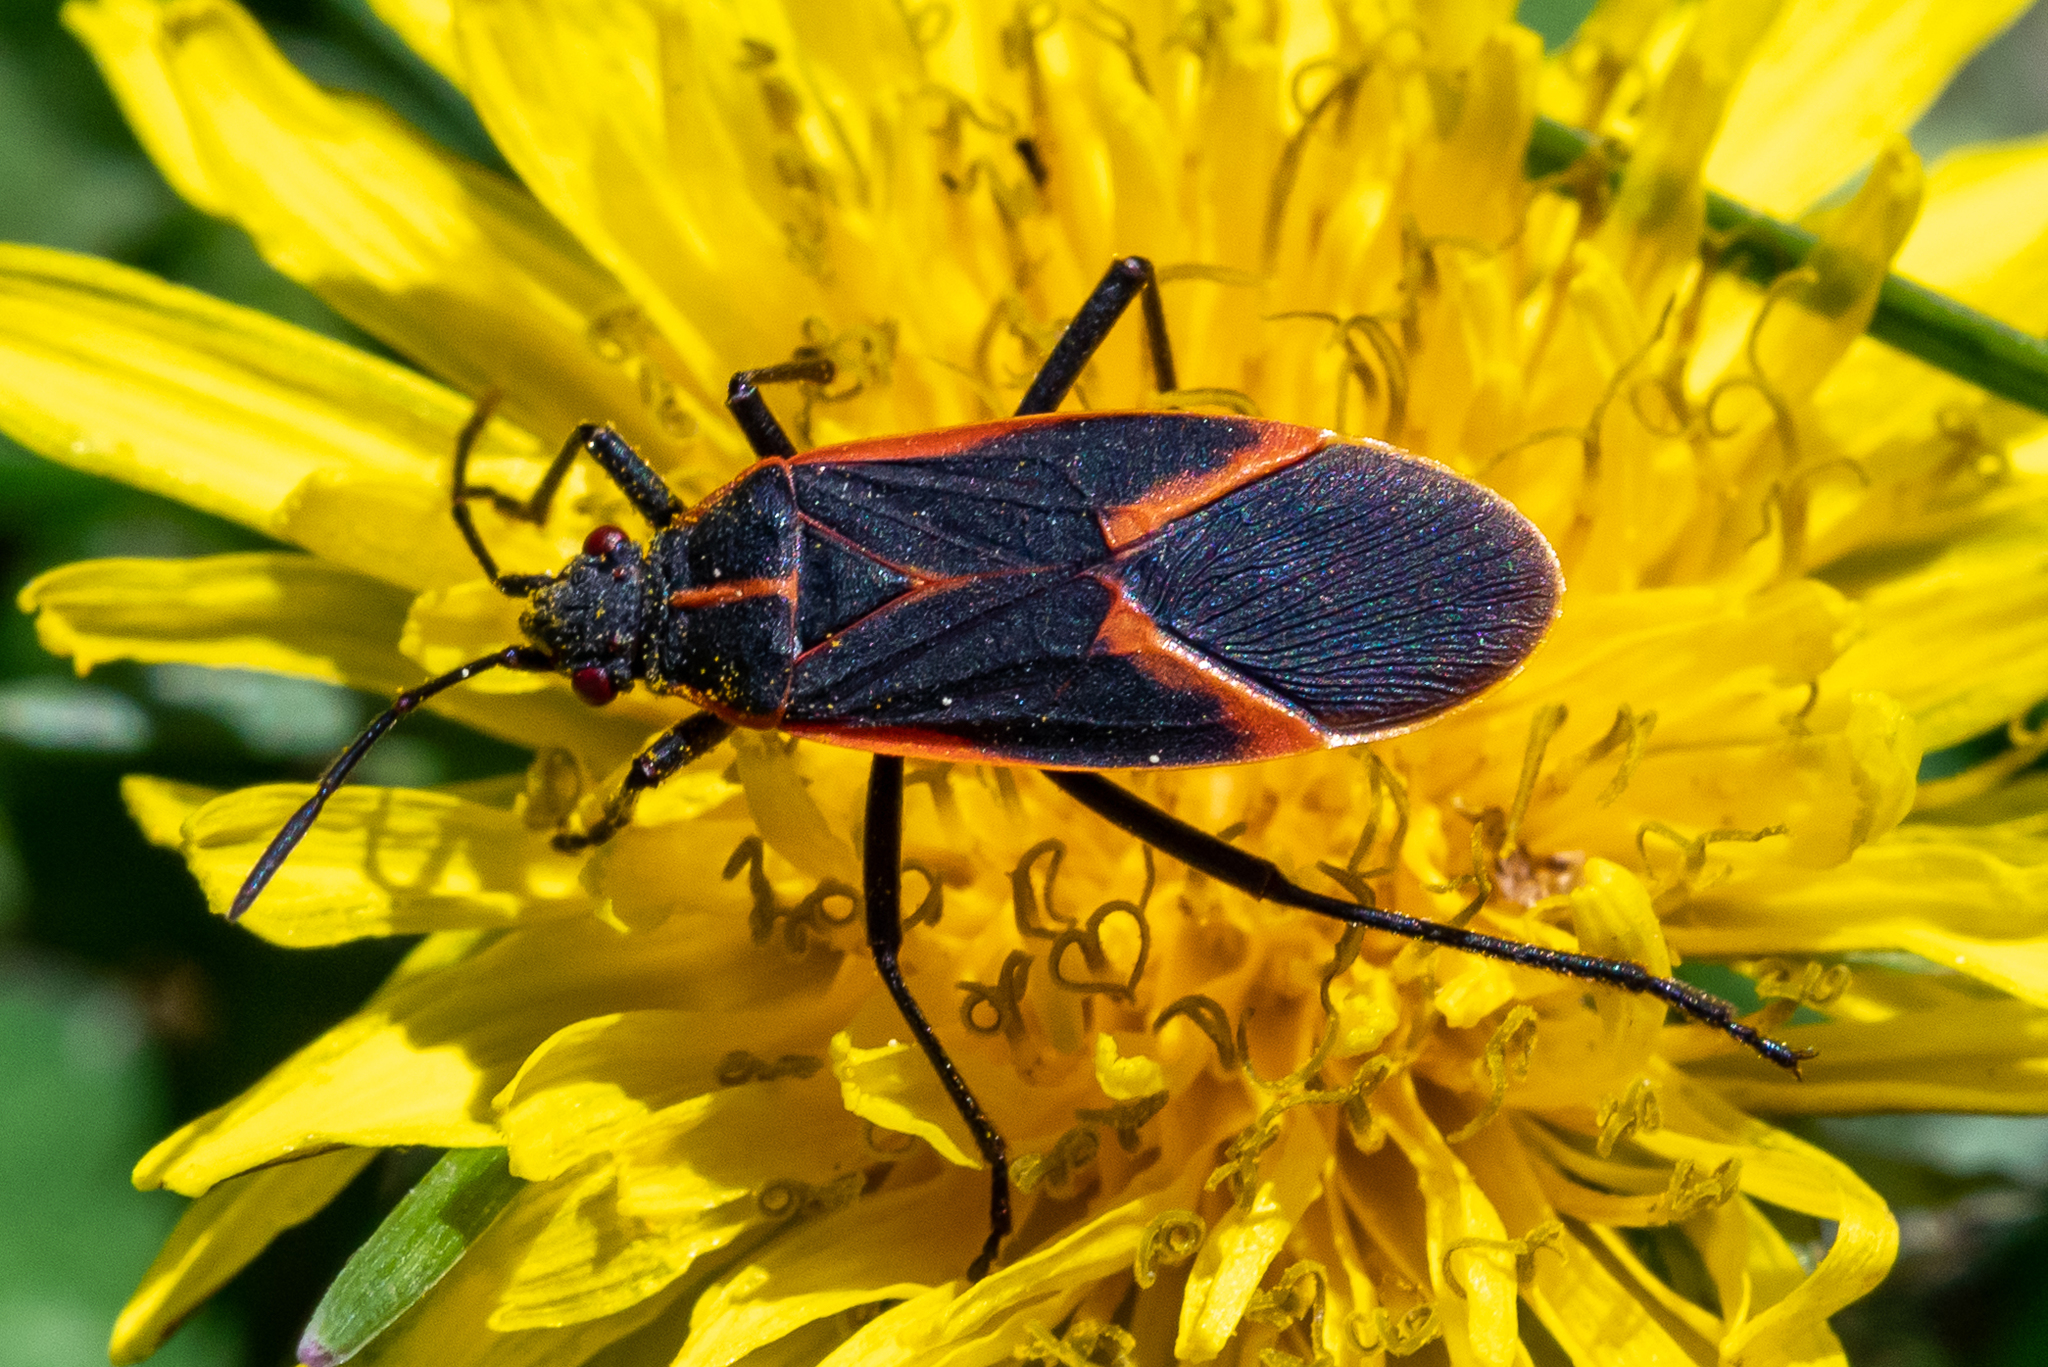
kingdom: Animalia
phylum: Arthropoda
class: Insecta
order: Hemiptera
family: Rhopalidae
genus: Boisea
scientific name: Boisea trivittata
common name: Boxelder bug
